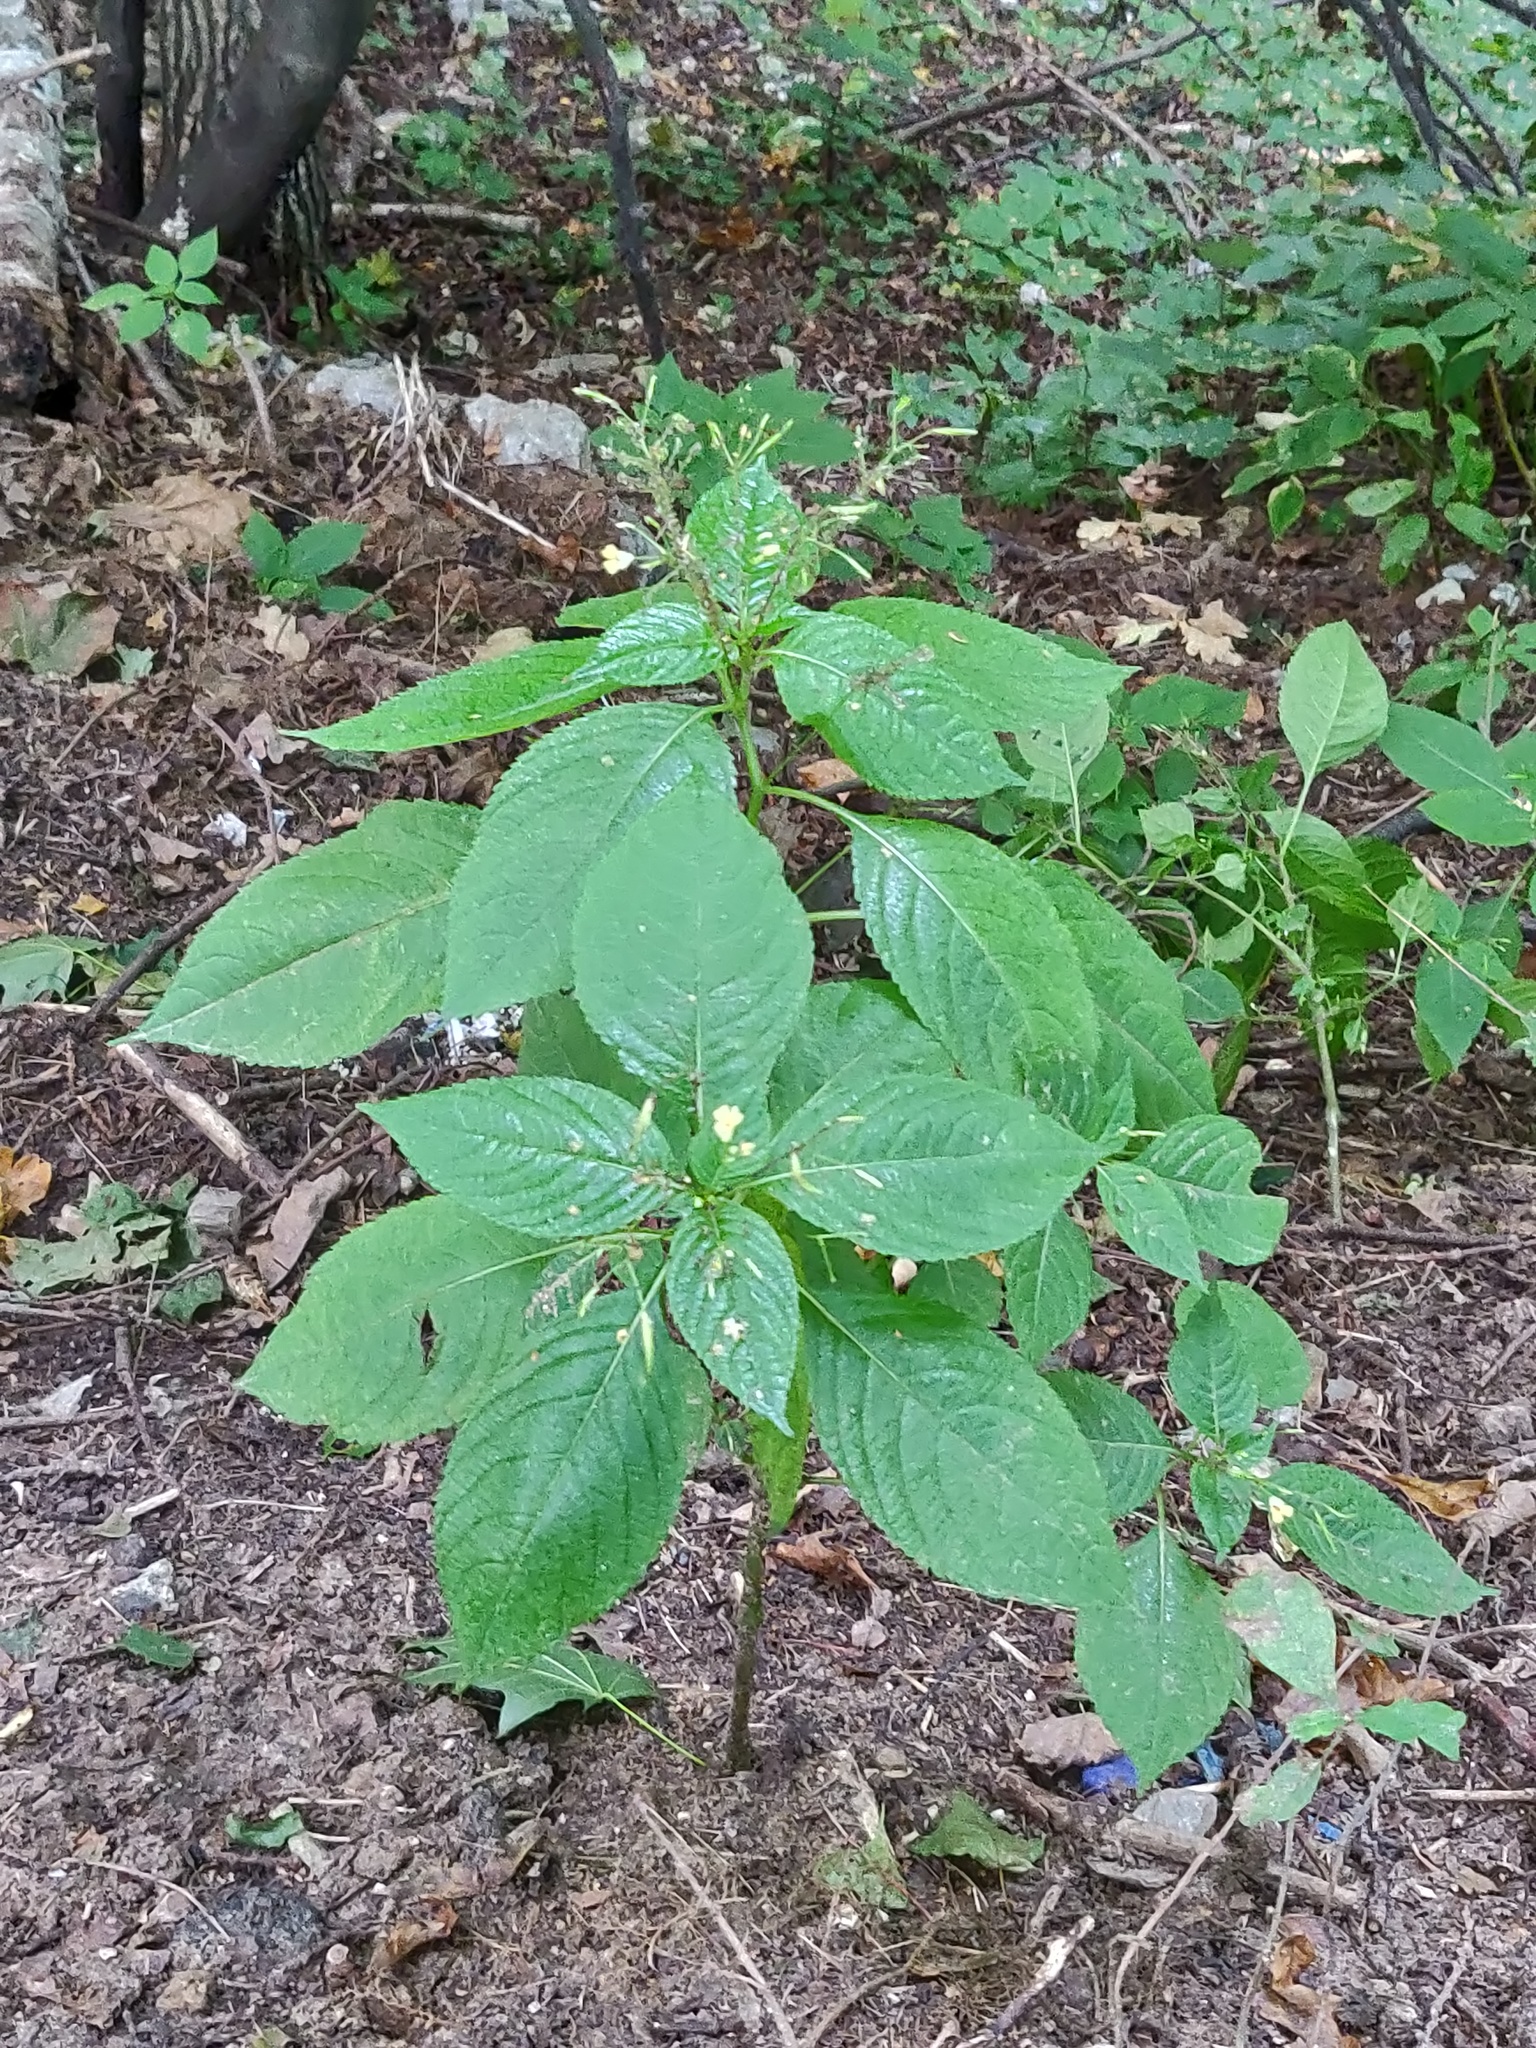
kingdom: Plantae
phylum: Tracheophyta
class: Magnoliopsida
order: Ericales
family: Balsaminaceae
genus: Impatiens
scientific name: Impatiens parviflora
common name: Small balsam
